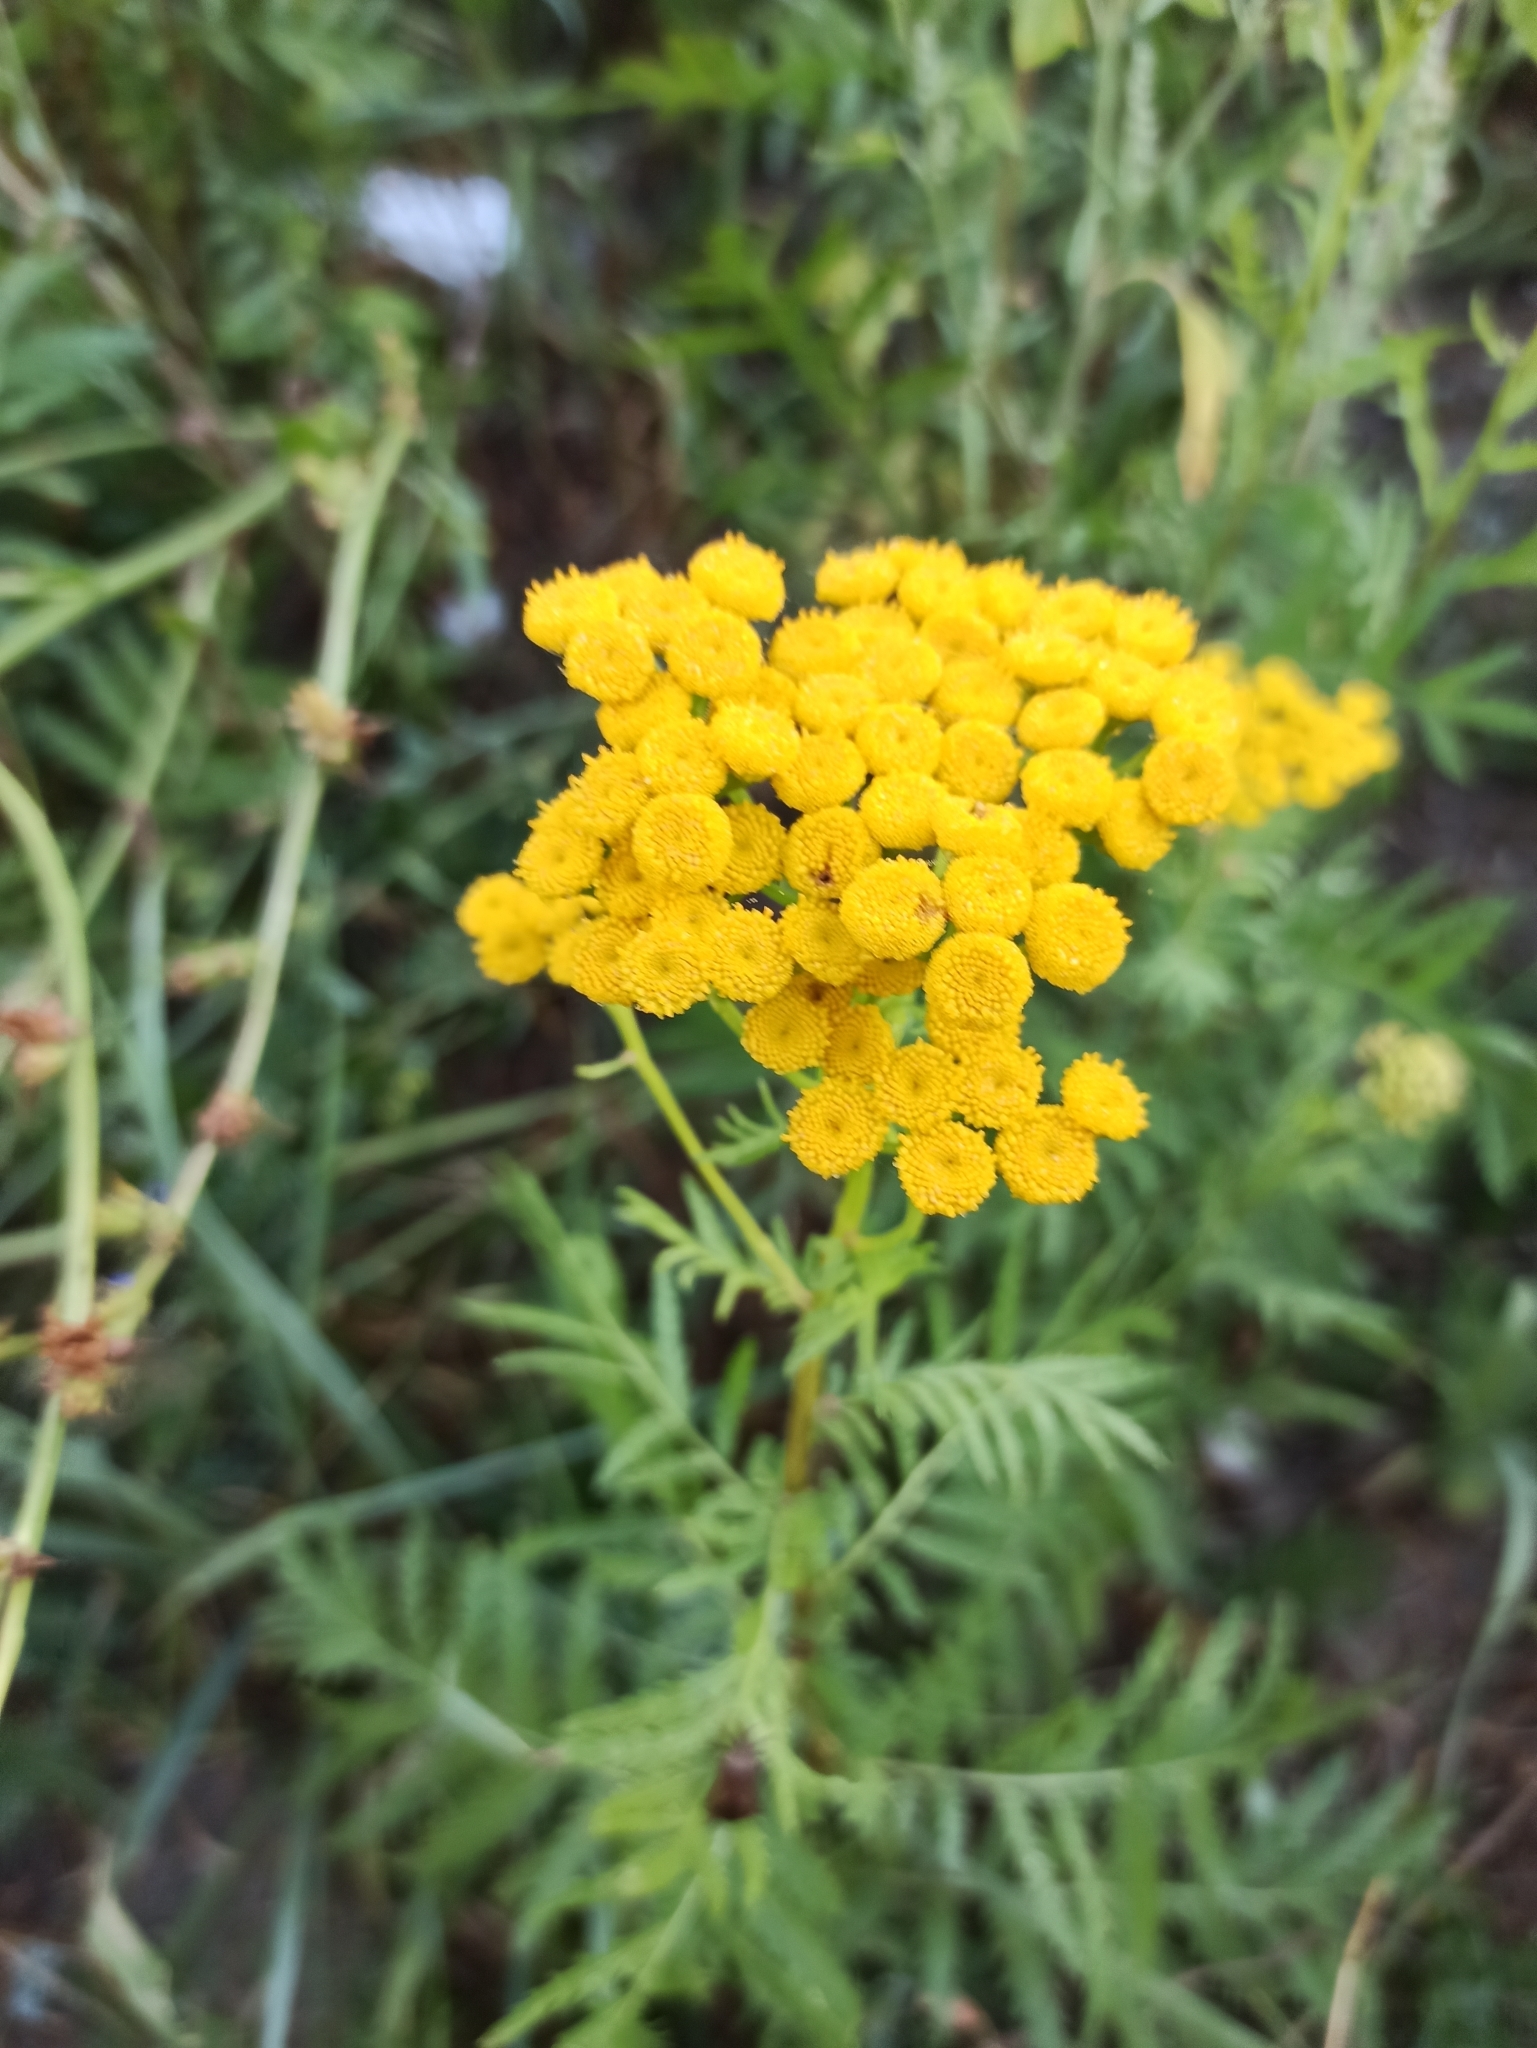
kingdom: Plantae
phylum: Tracheophyta
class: Magnoliopsida
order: Asterales
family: Asteraceae
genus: Tanacetum
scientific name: Tanacetum vulgare
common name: Common tansy
